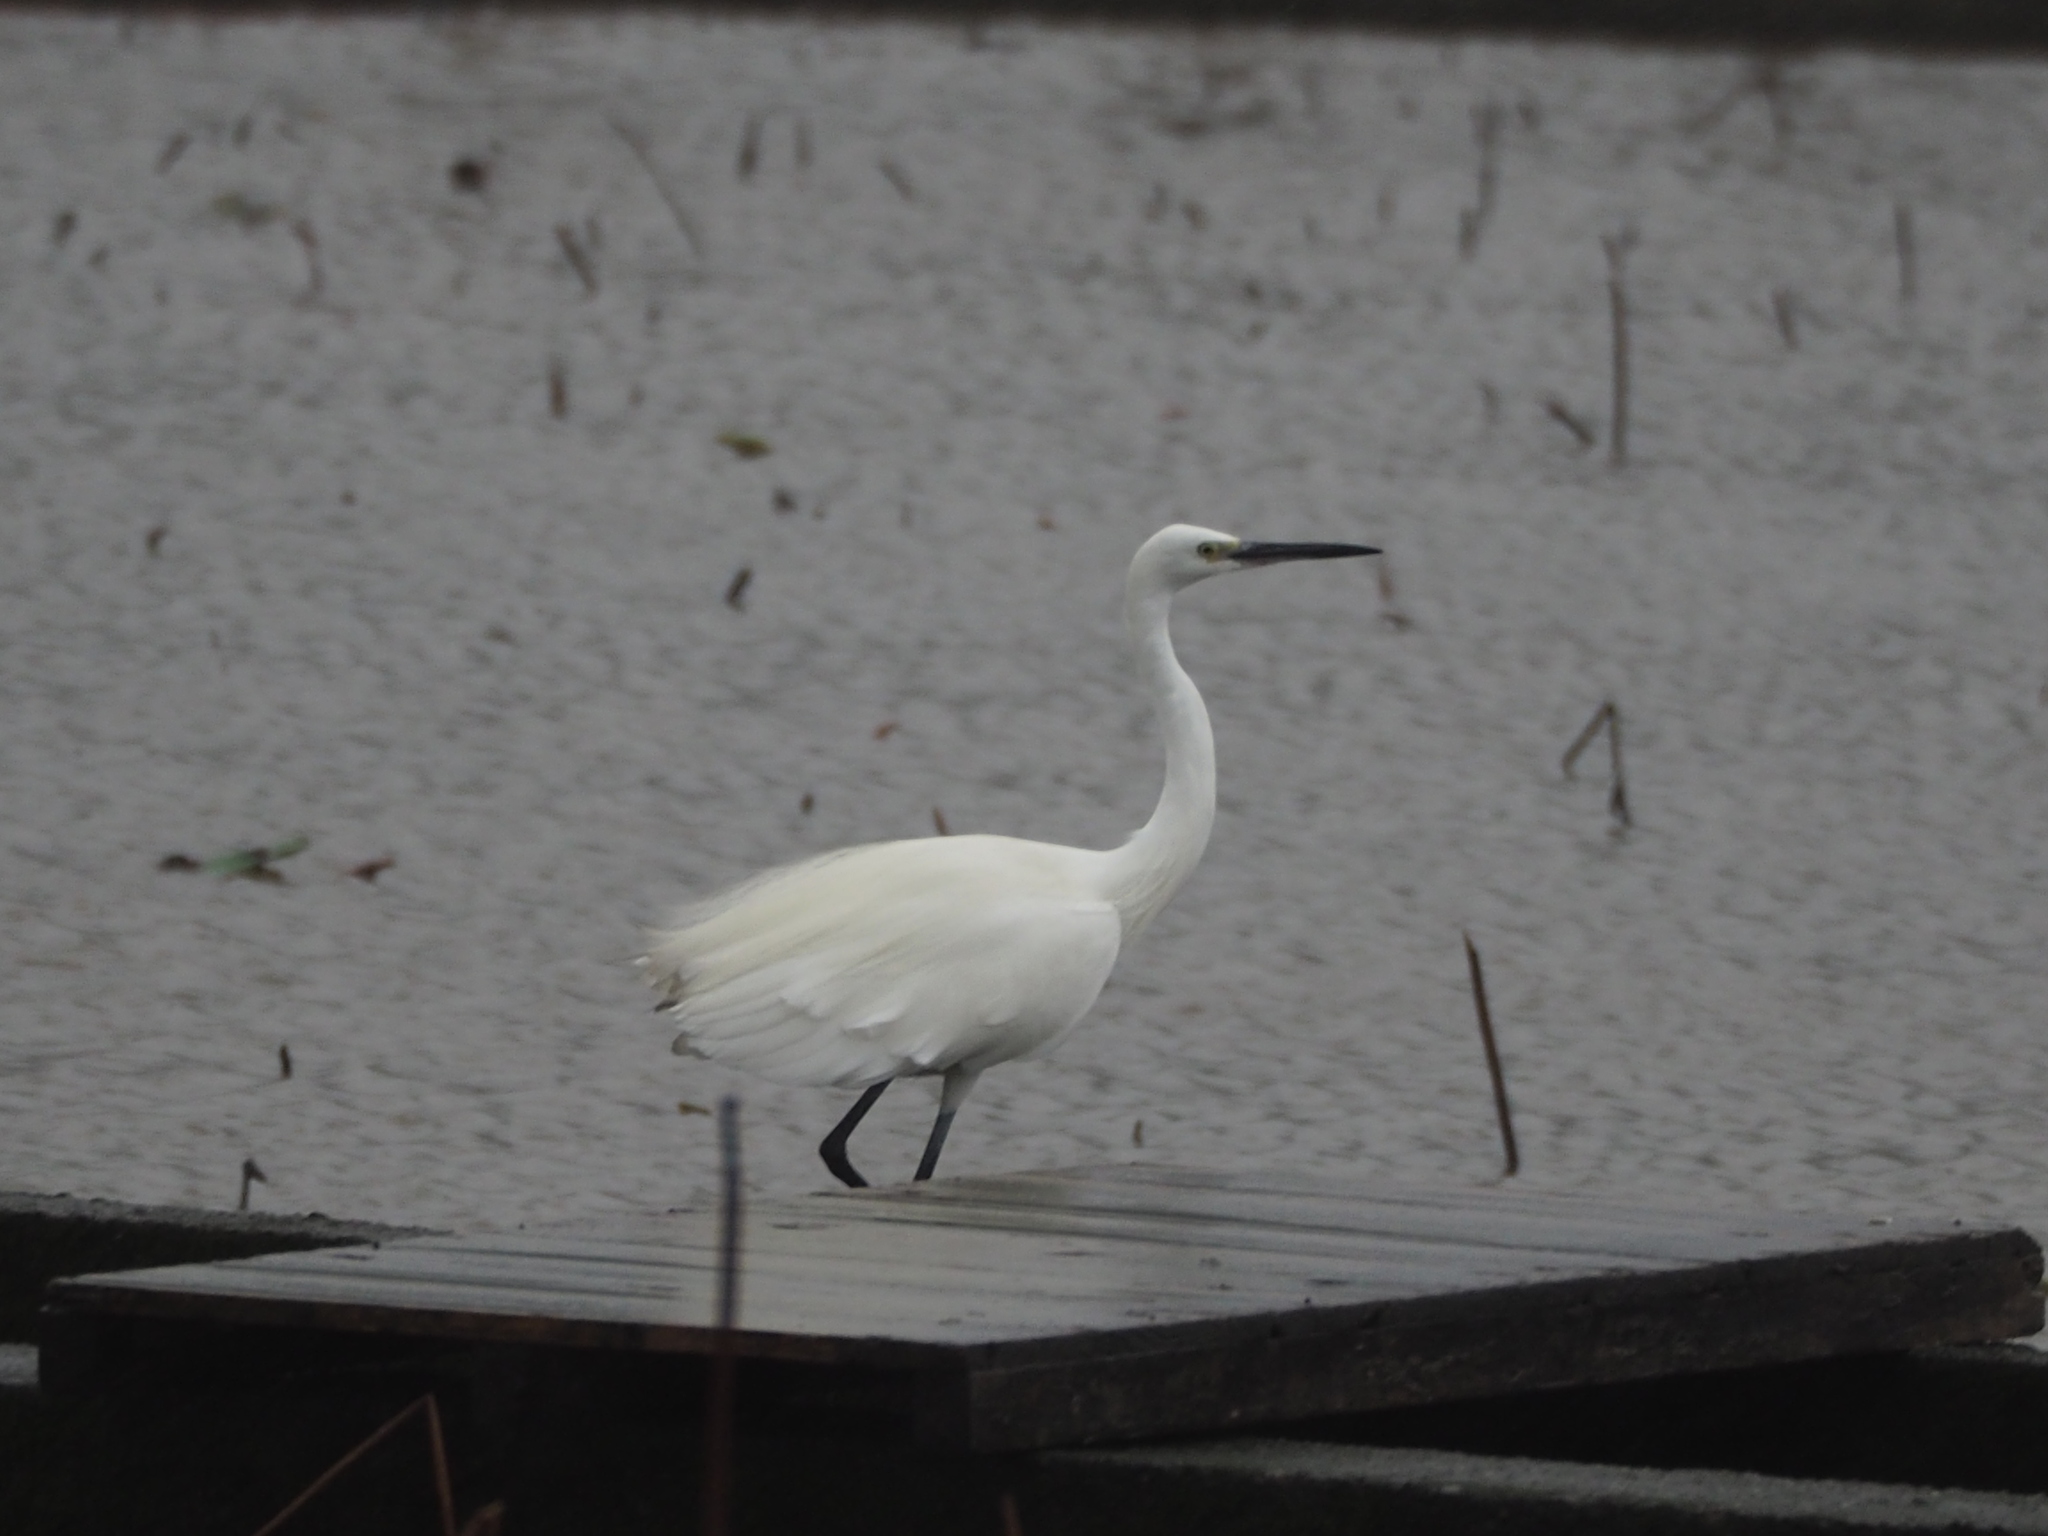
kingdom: Animalia
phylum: Chordata
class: Aves
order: Pelecaniformes
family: Ardeidae
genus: Egretta
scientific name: Egretta garzetta
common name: Little egret
